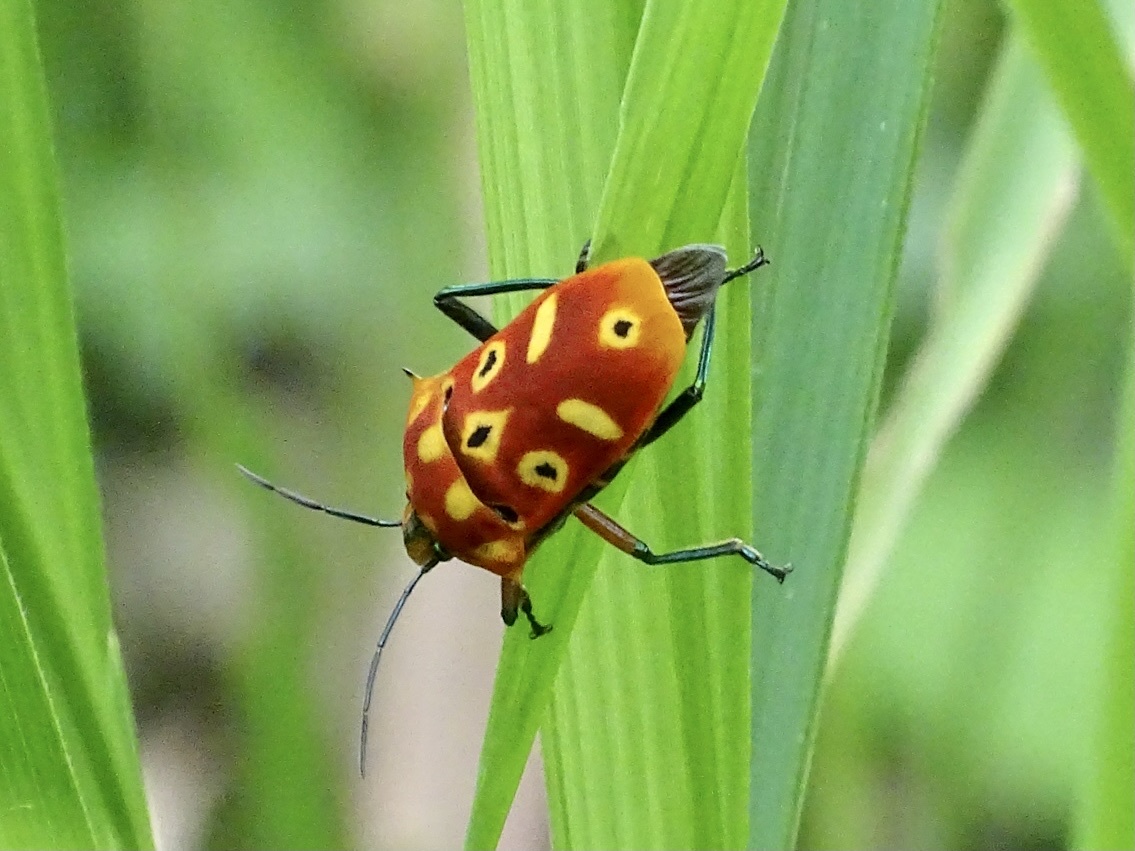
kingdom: Animalia
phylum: Arthropoda
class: Insecta
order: Hemiptera
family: Scutelleridae
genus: Cantao
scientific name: Cantao ocellatus
